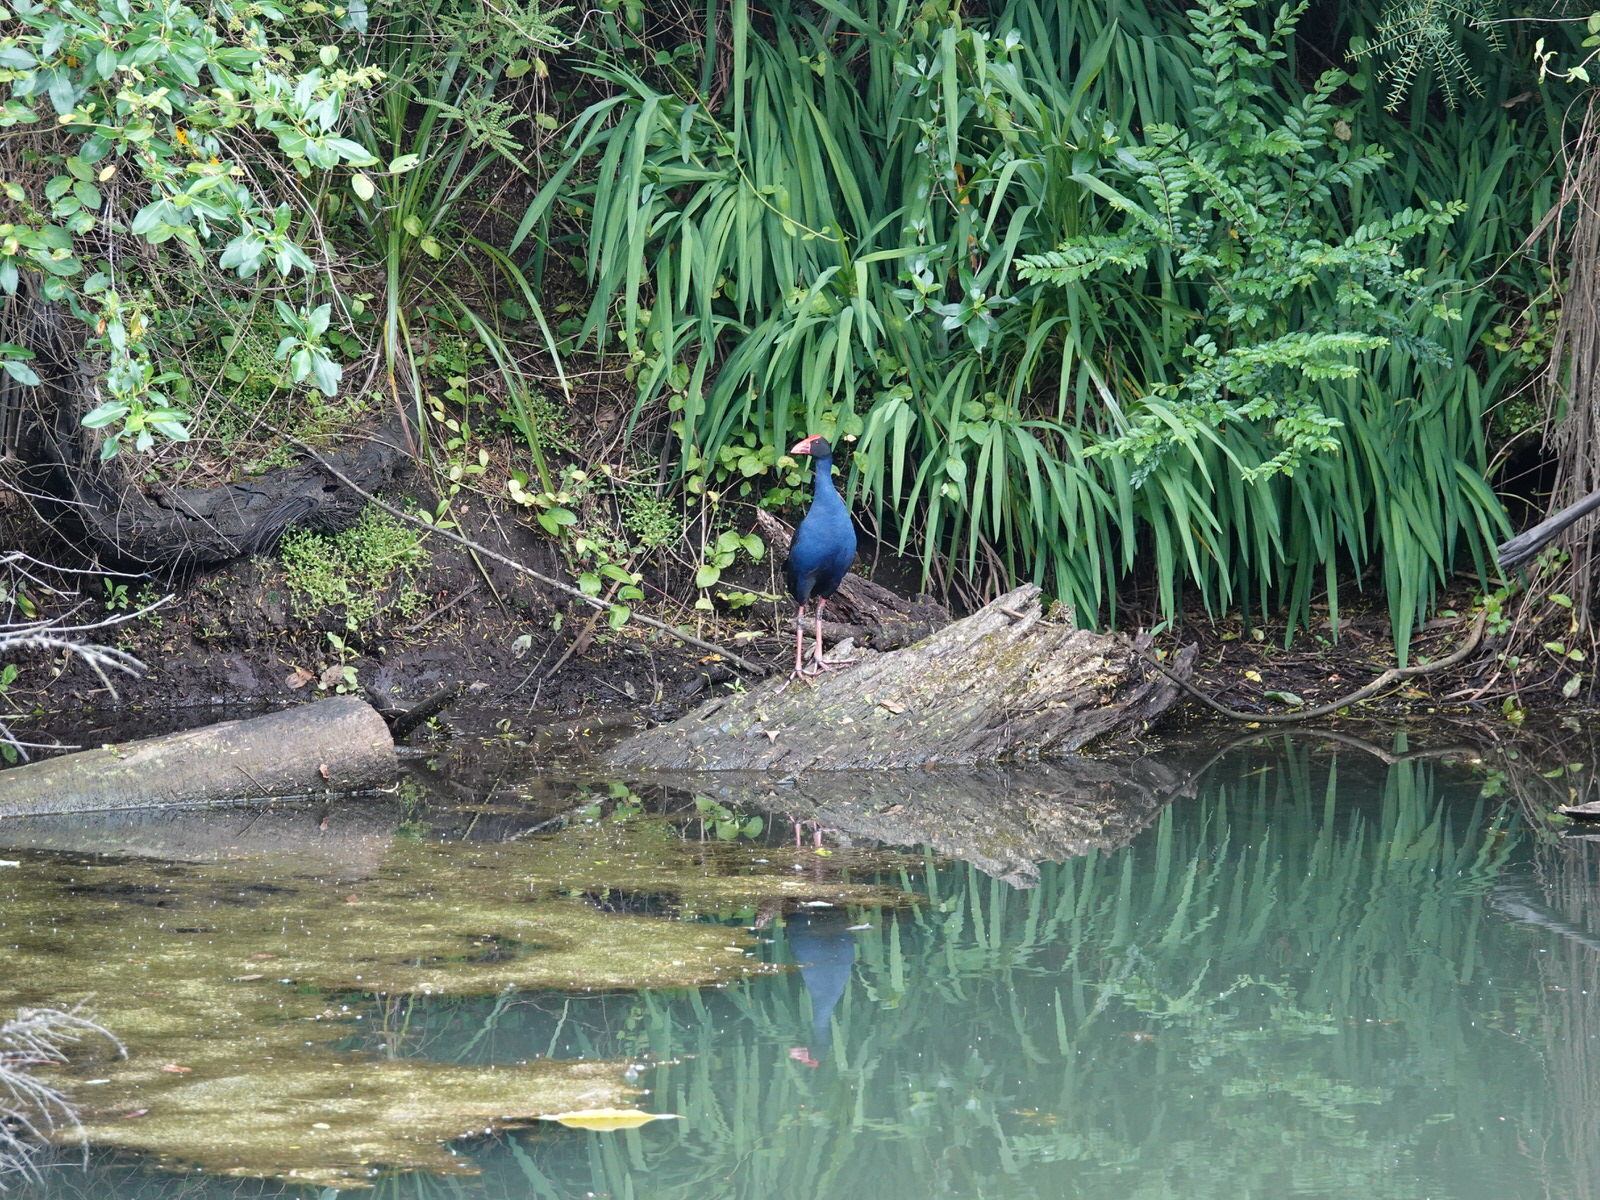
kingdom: Animalia
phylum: Chordata
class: Aves
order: Gruiformes
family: Rallidae
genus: Porphyrio
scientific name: Porphyrio melanotus
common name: Australasian swamphen
